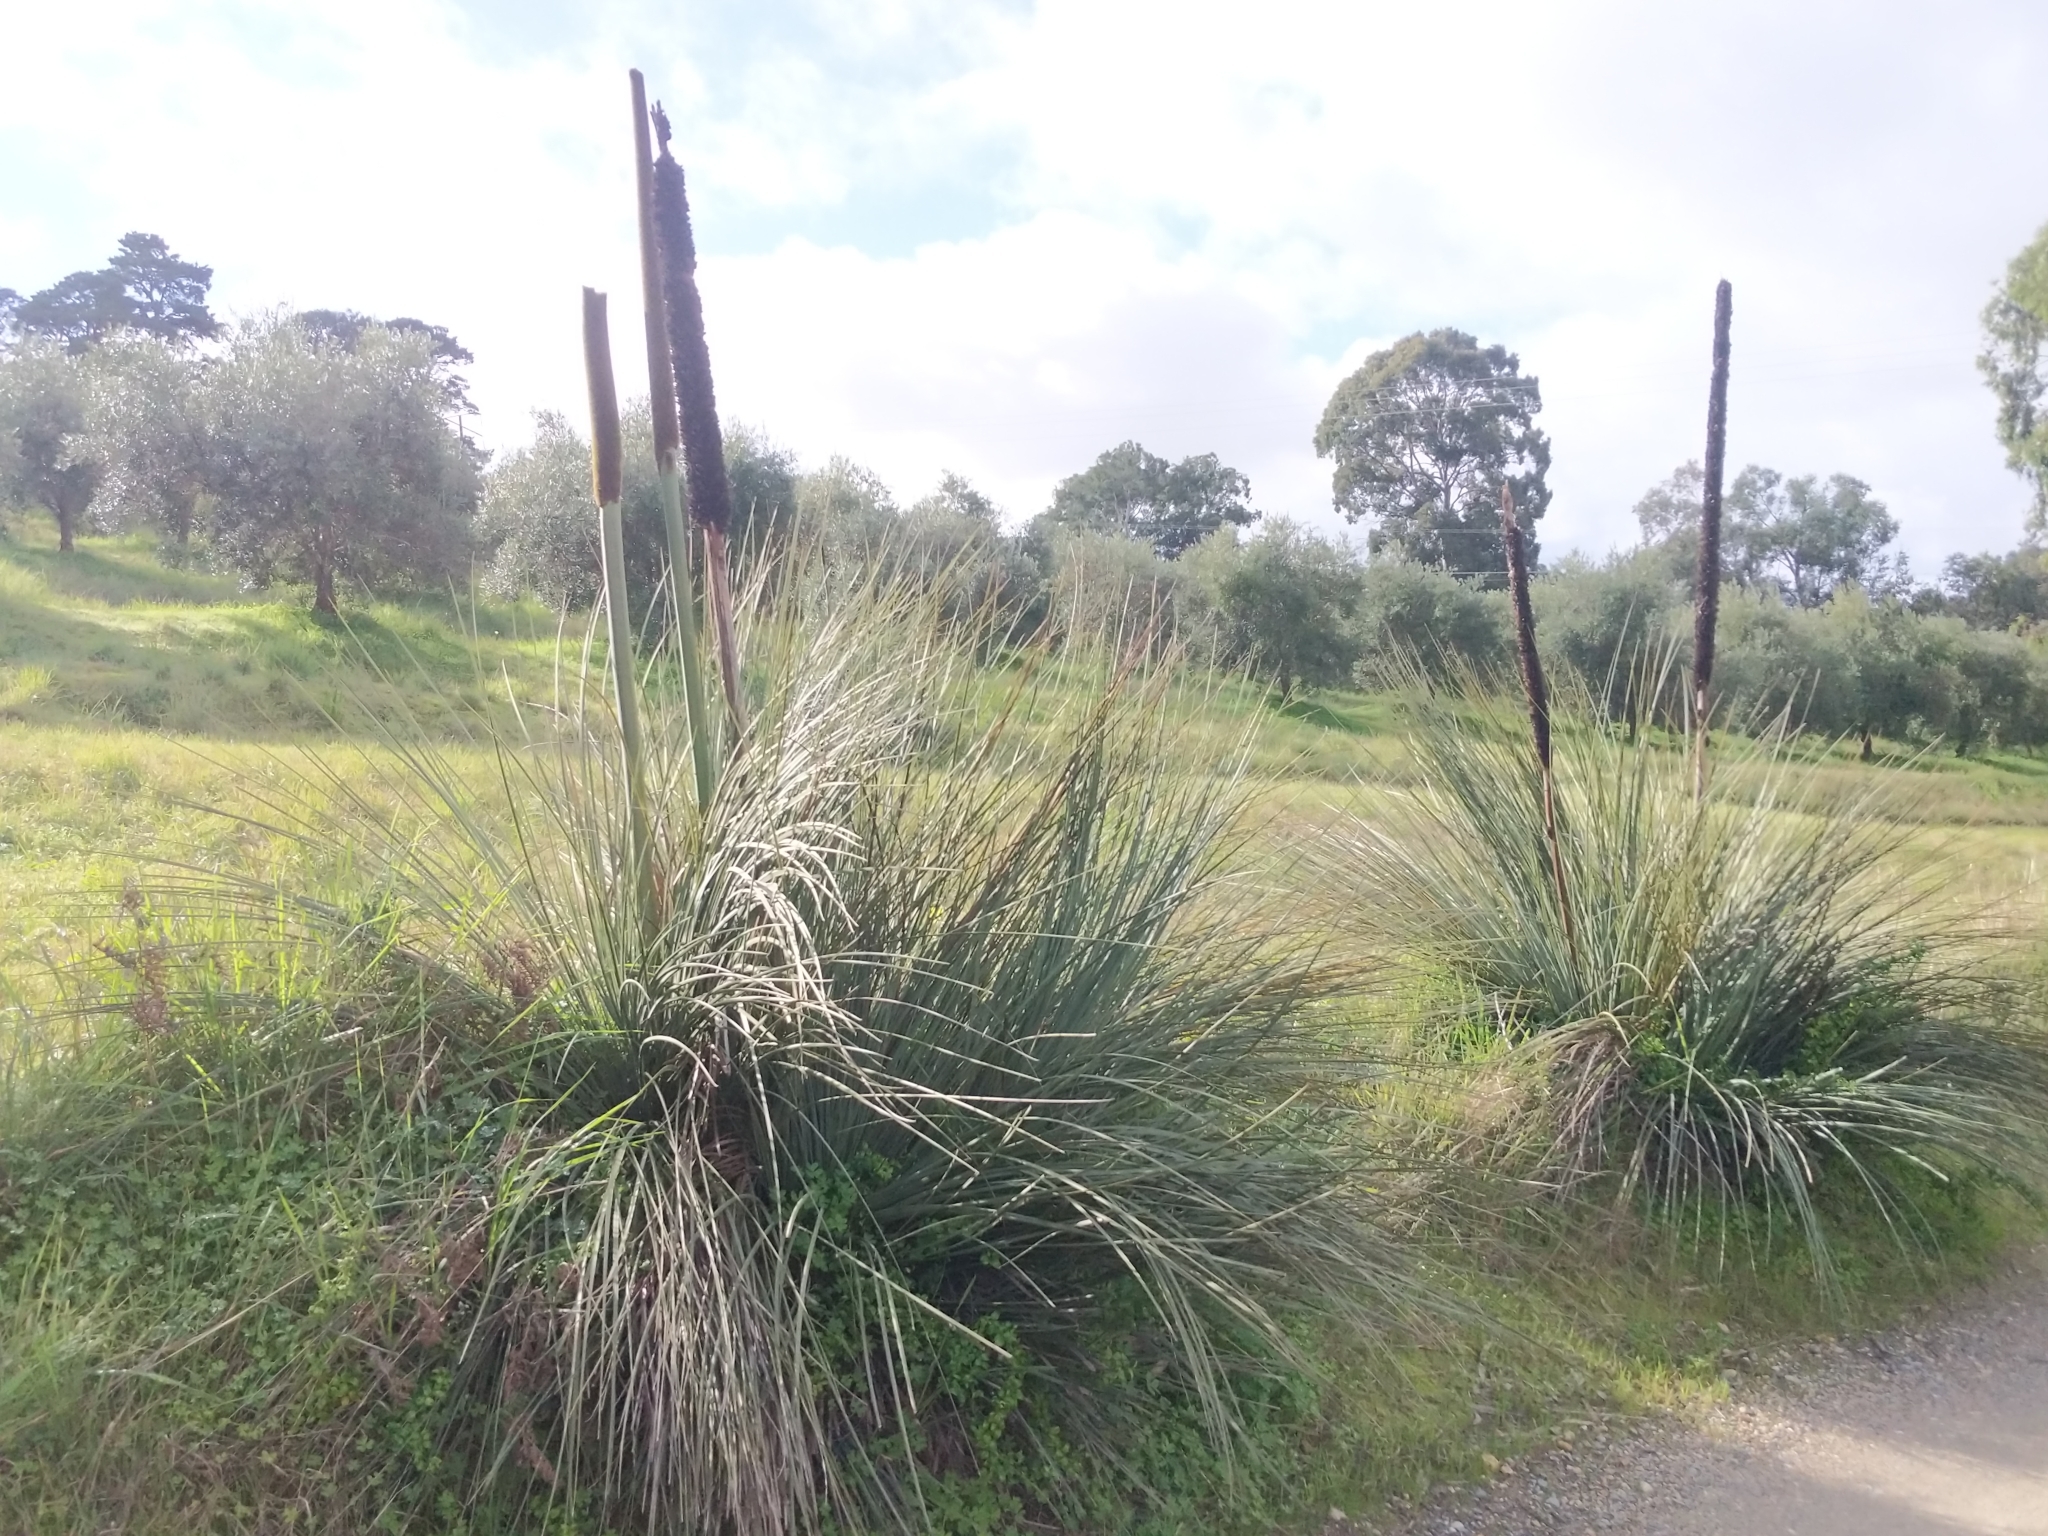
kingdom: Plantae
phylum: Tracheophyta
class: Liliopsida
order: Asparagales
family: Asphodelaceae
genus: Xanthorrhoea
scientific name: Xanthorrhoea semiplana
